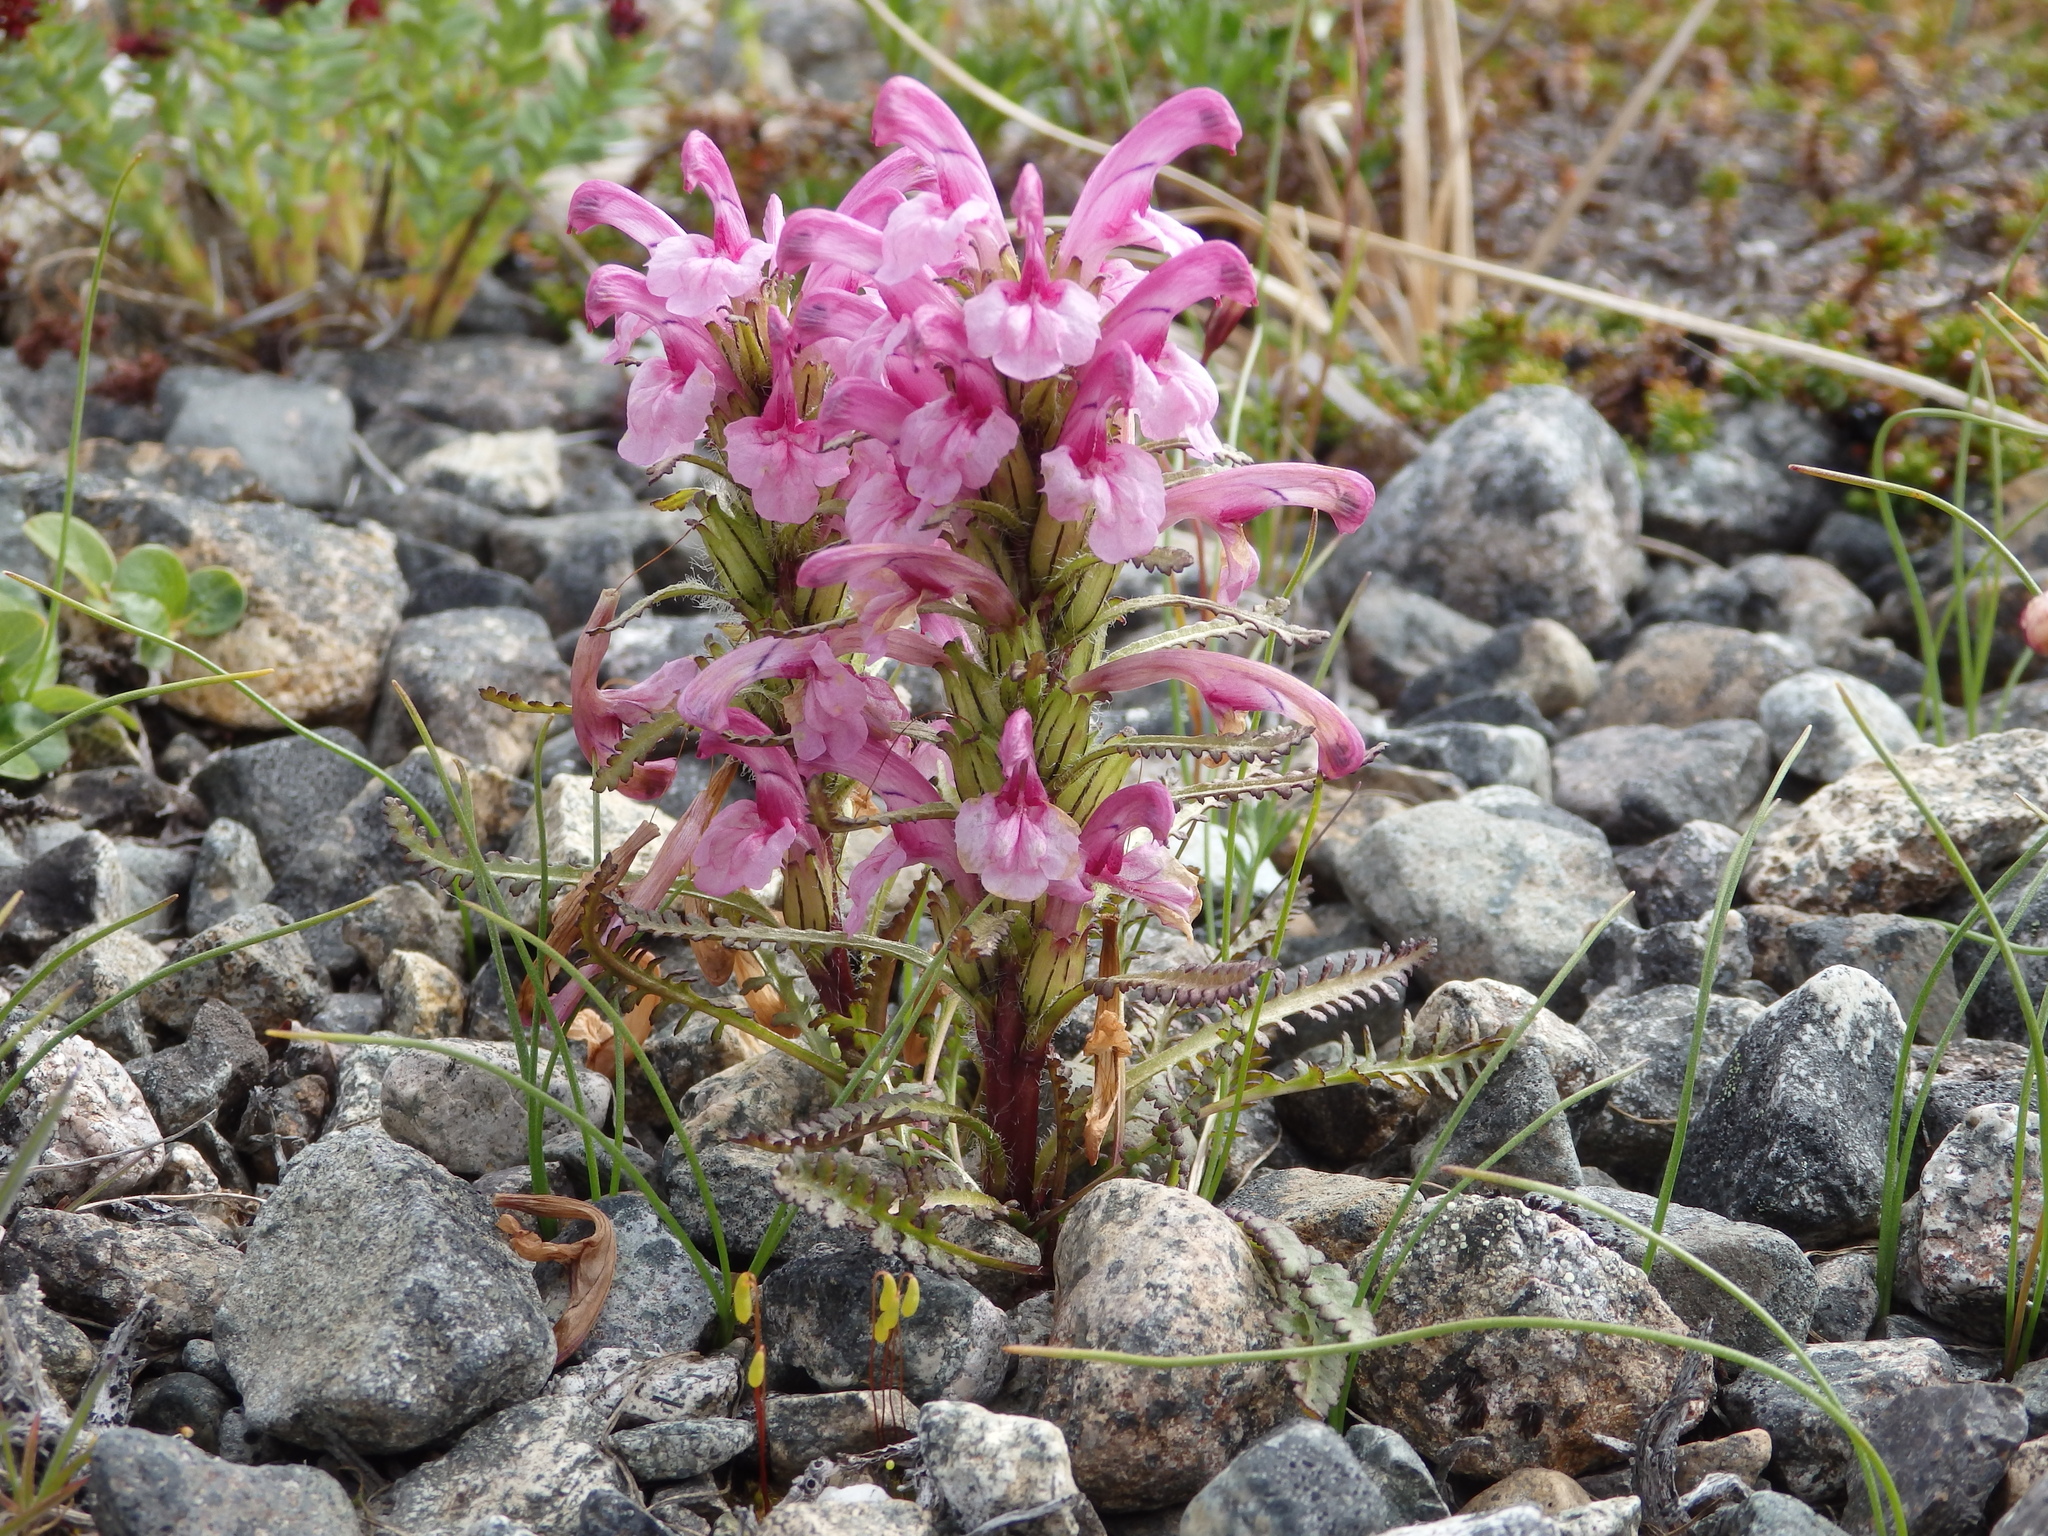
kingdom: Plantae
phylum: Tracheophyta
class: Magnoliopsida
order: Lamiales
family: Orobanchaceae
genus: Pedicularis
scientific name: Pedicularis langsdorffii
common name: Langsdorff's lousewort
